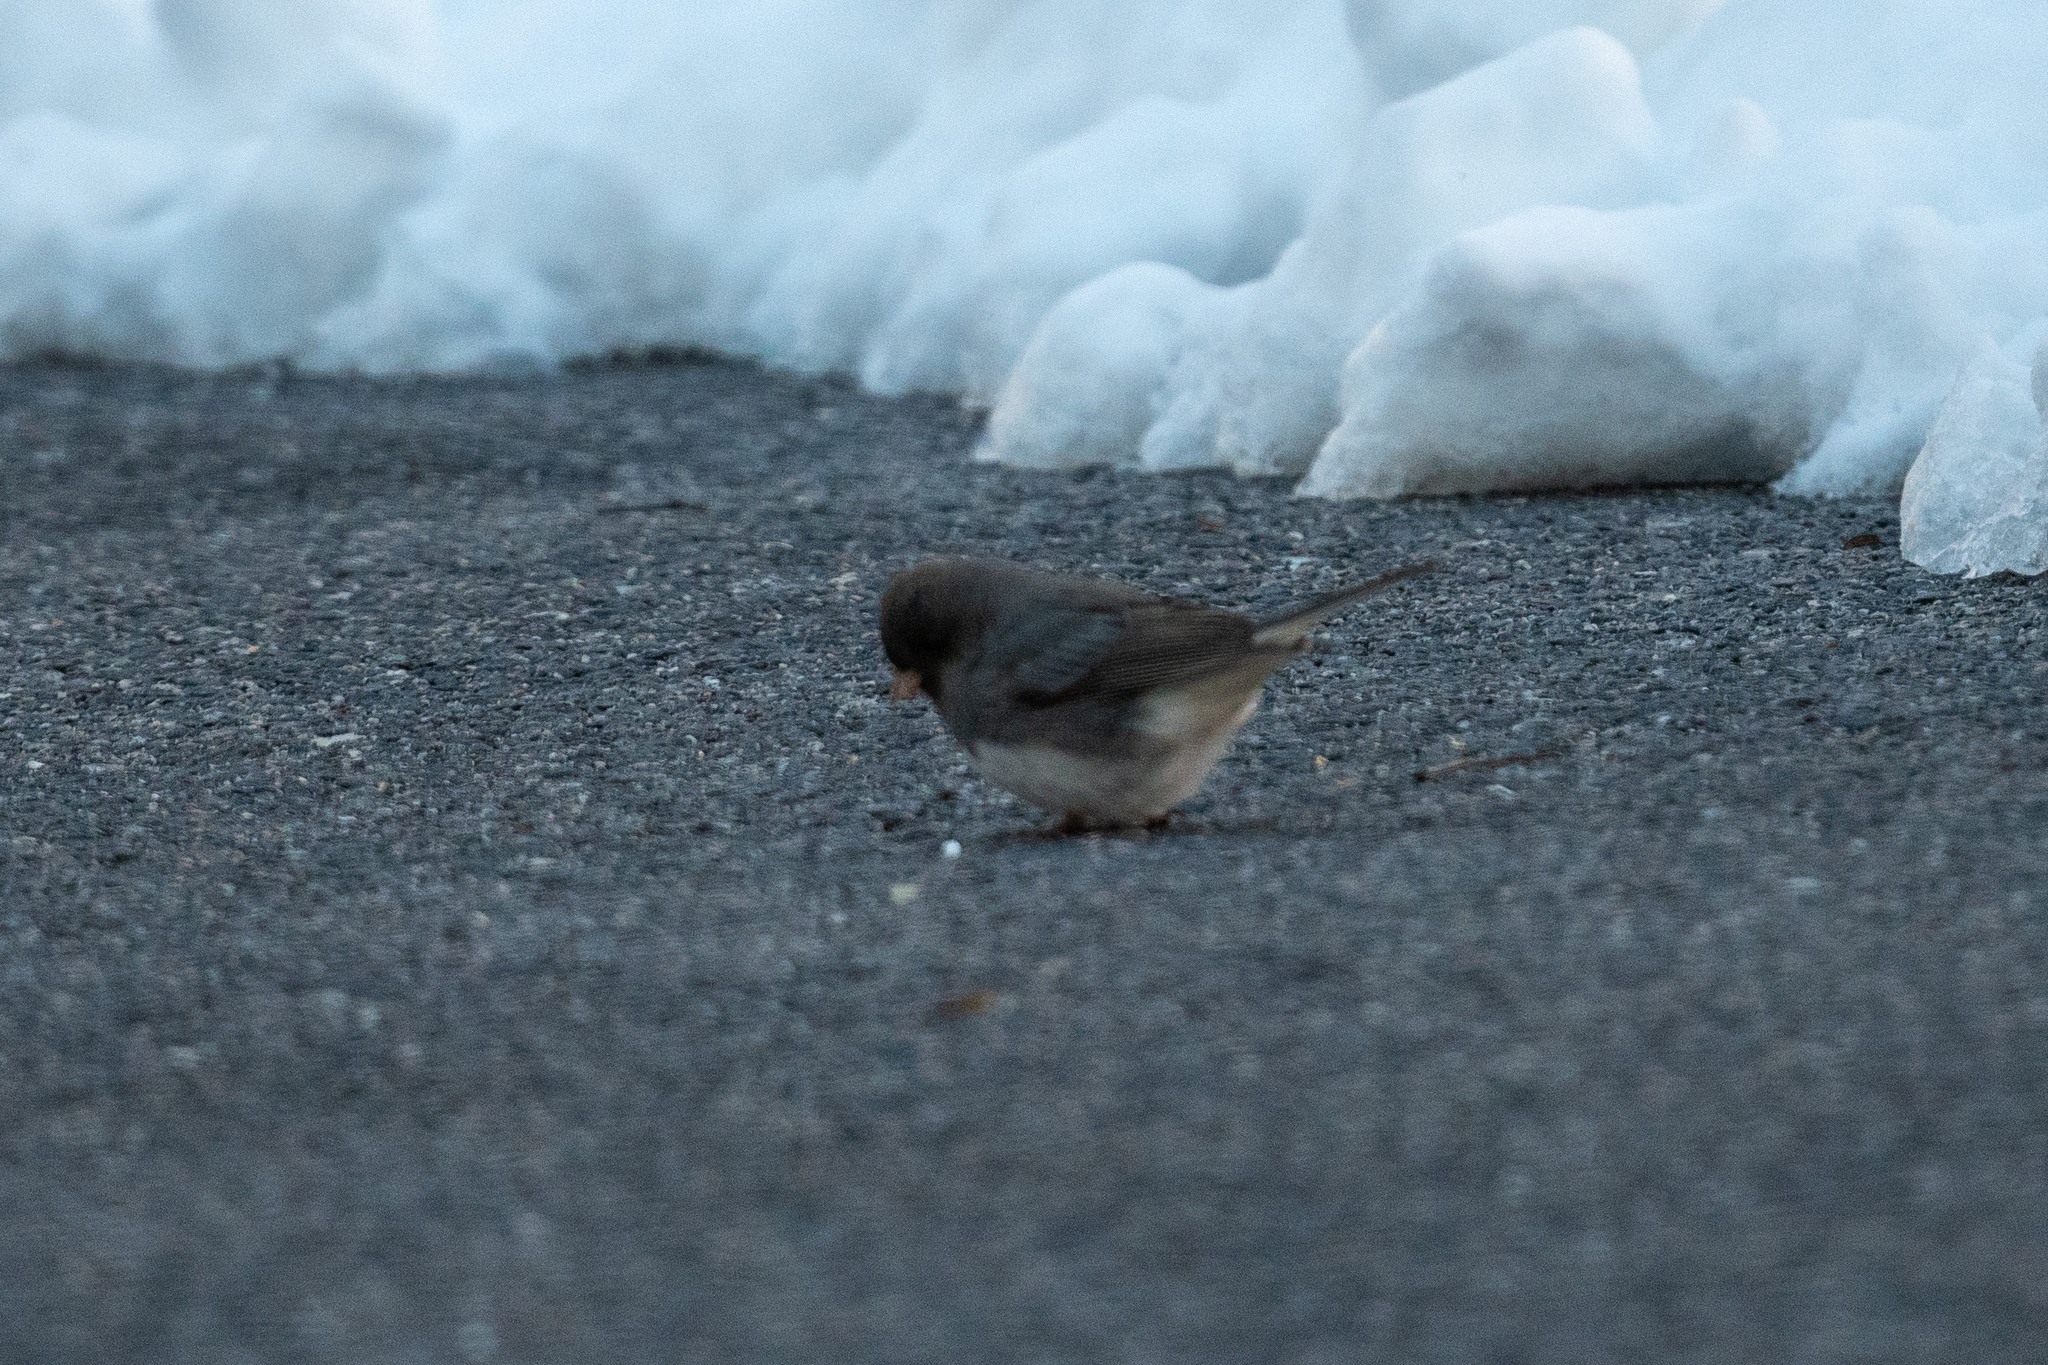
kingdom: Animalia
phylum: Chordata
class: Aves
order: Passeriformes
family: Passerellidae
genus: Junco
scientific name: Junco hyemalis
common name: Dark-eyed junco
